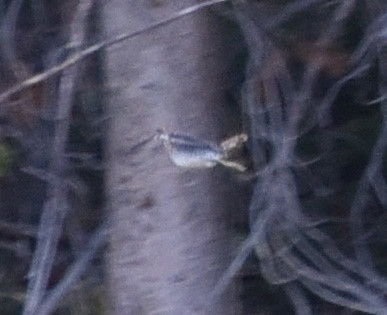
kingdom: Animalia
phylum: Chordata
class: Aves
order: Charadriiformes
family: Scolopacidae
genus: Gallinago
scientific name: Gallinago delicata
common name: Wilson's snipe
